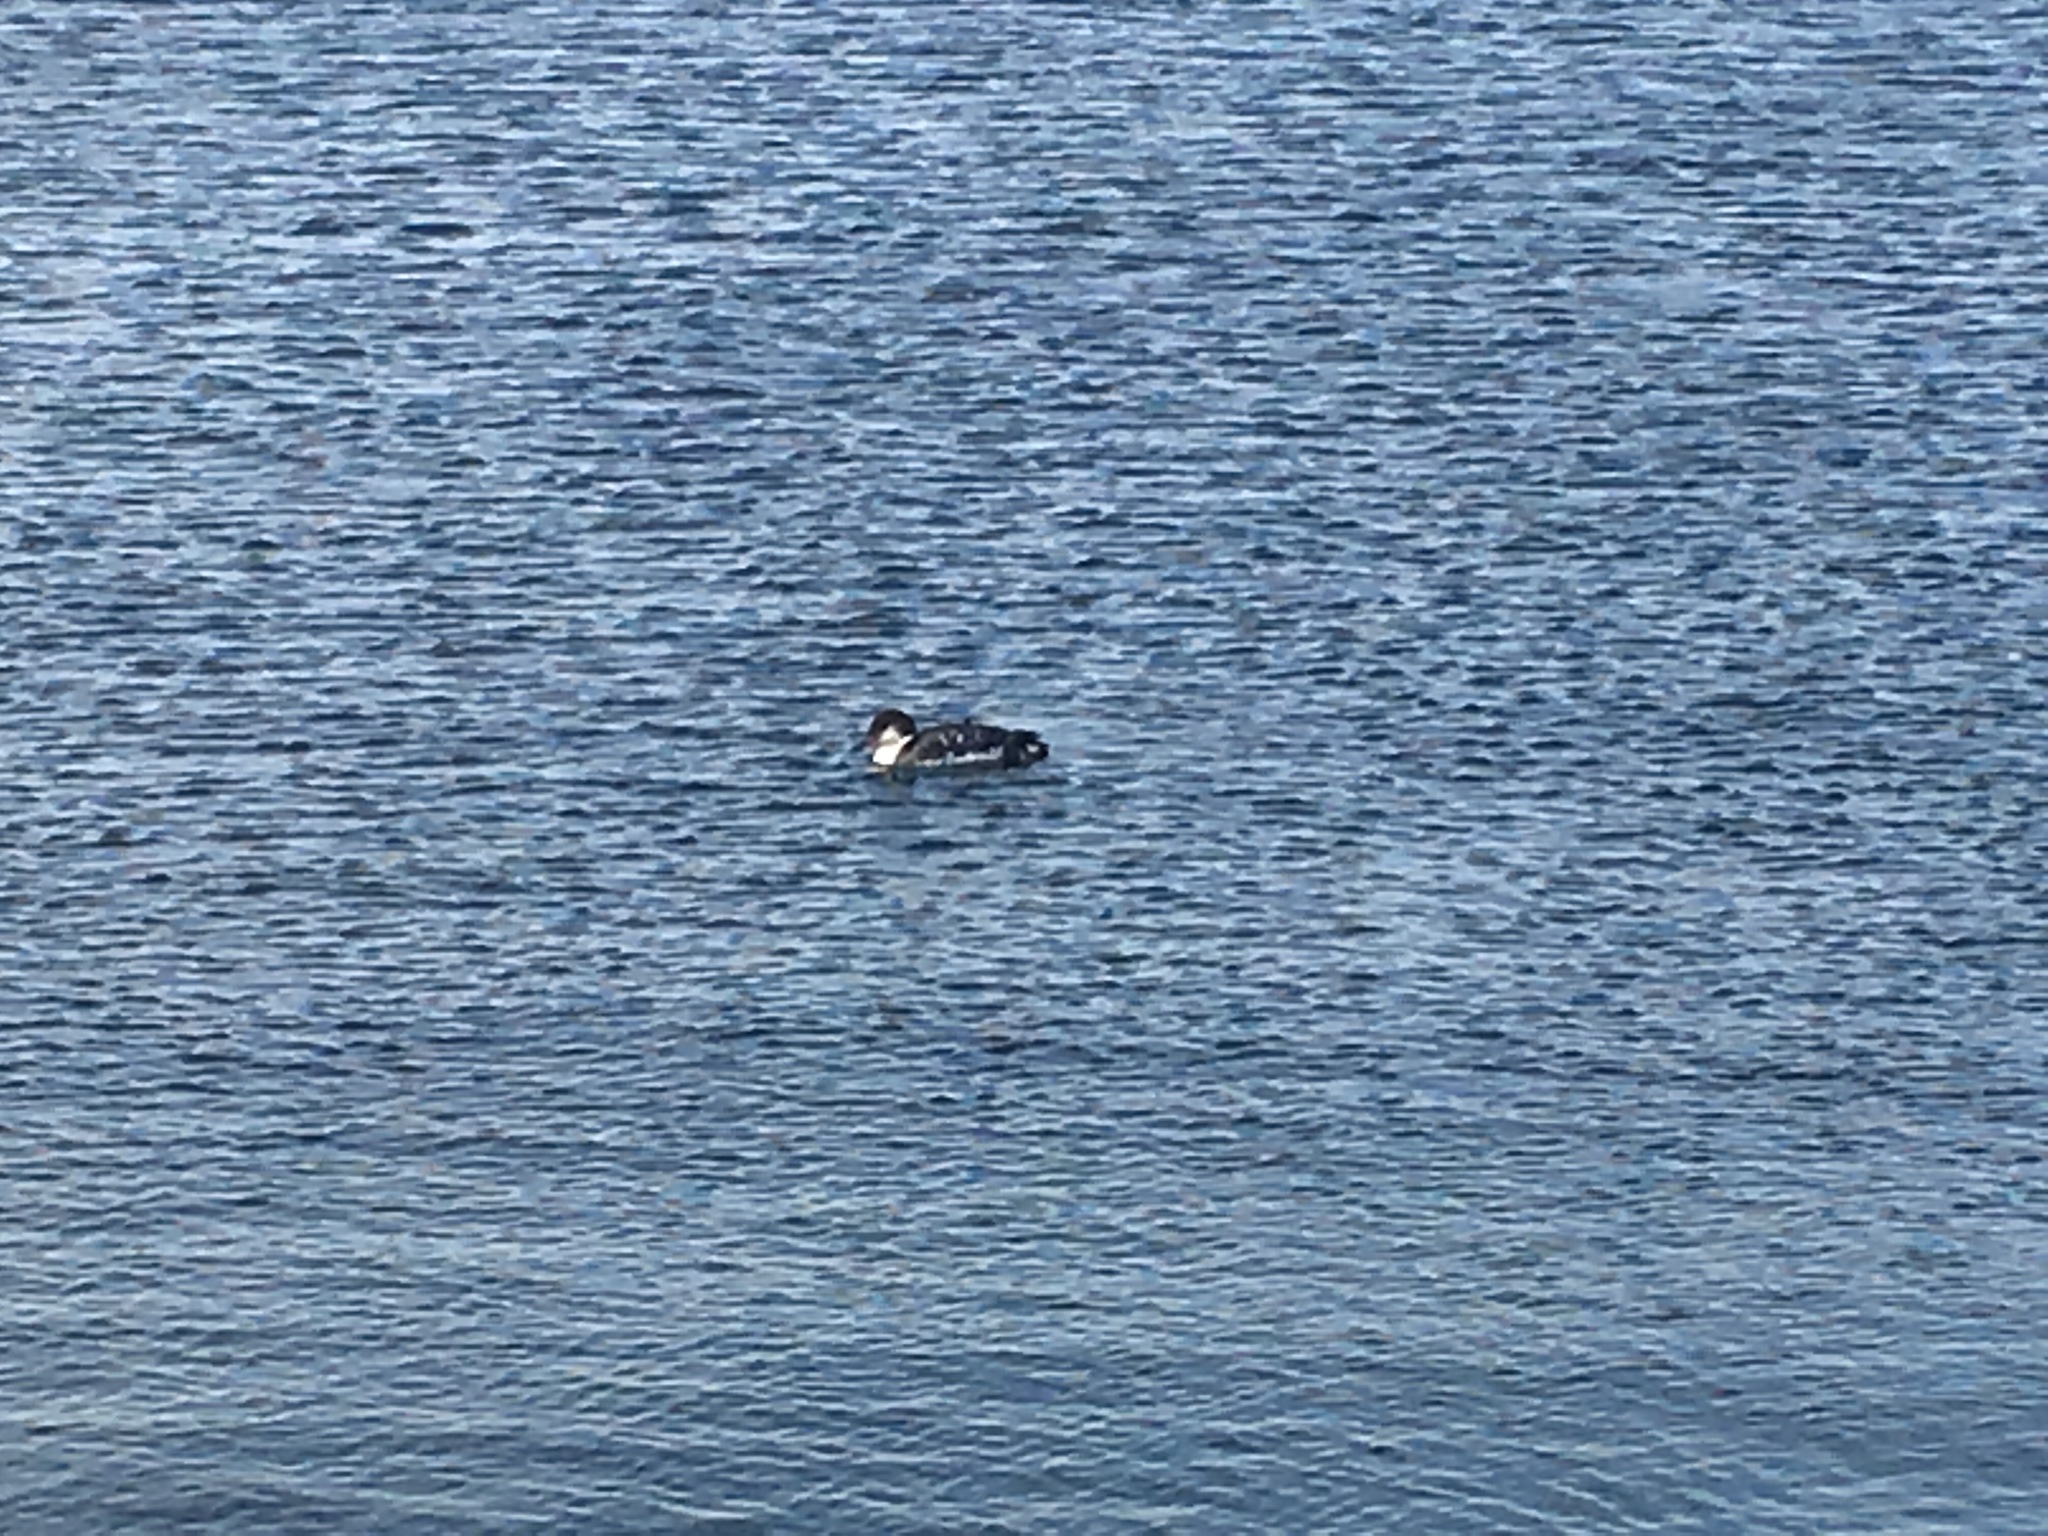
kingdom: Animalia
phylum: Chordata
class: Aves
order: Gaviiformes
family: Gaviidae
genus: Gavia
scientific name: Gavia immer
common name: Common loon
